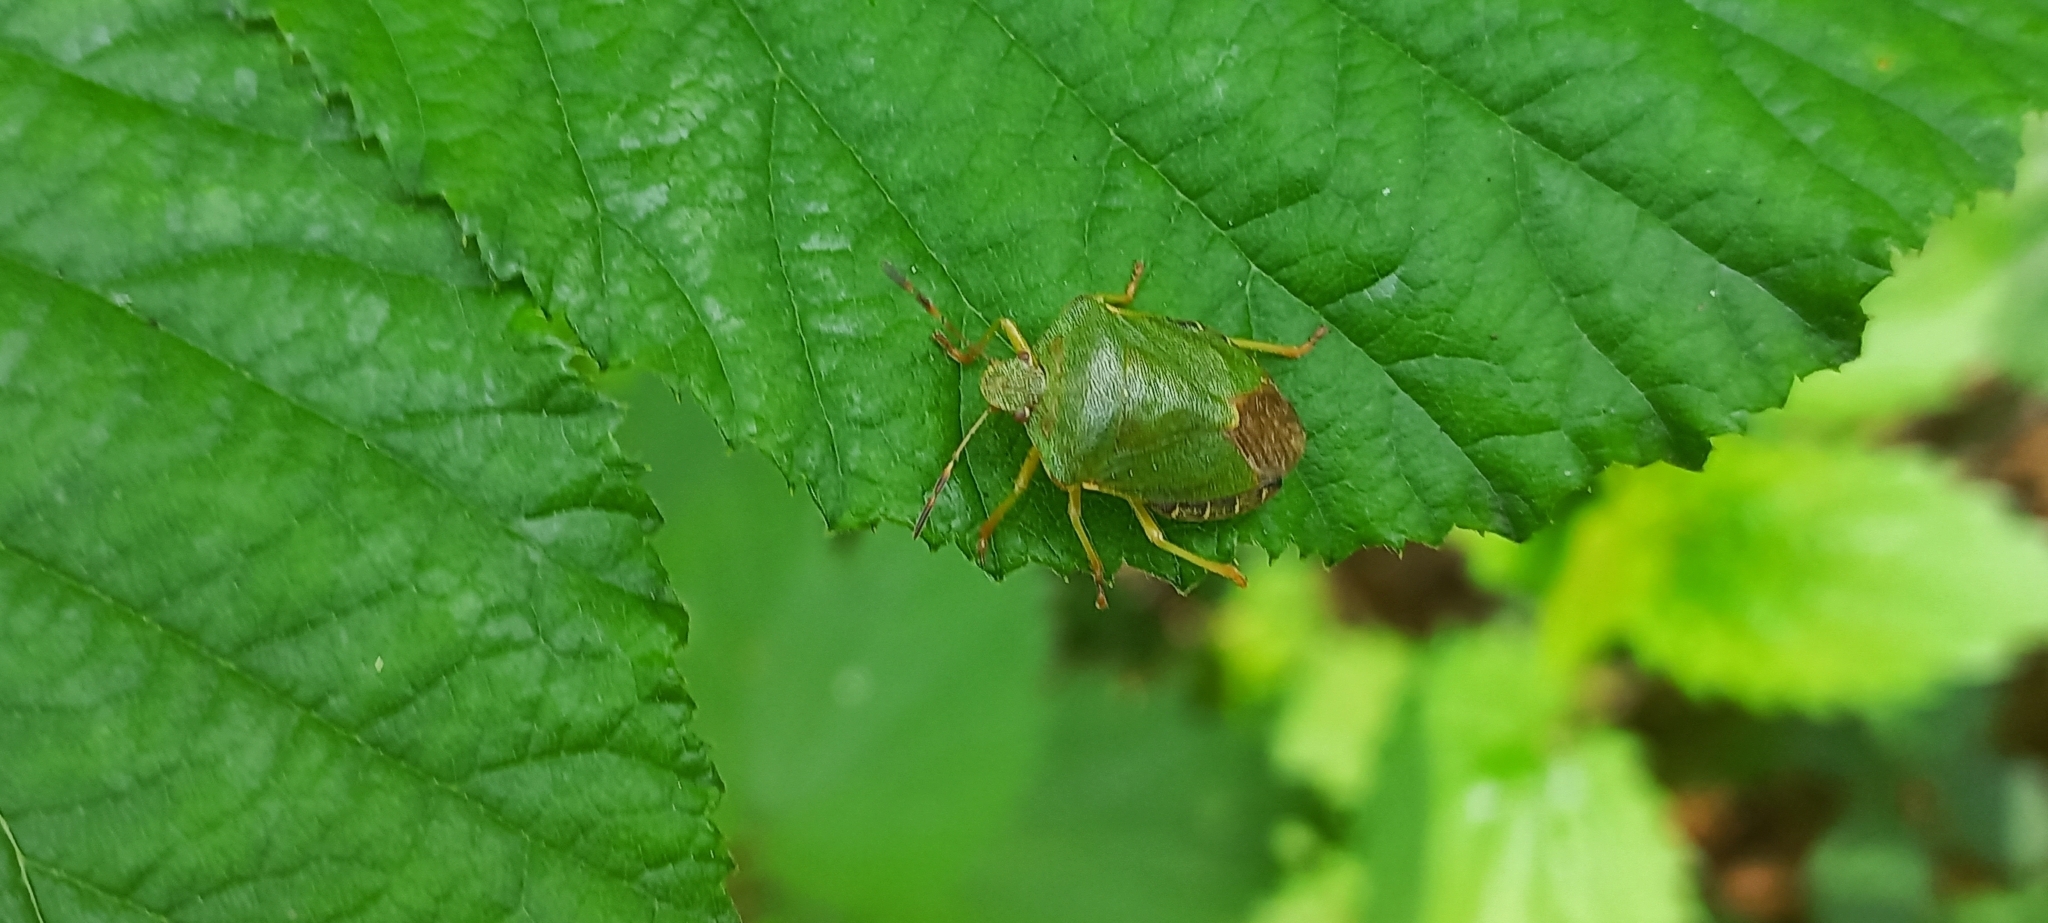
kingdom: Animalia
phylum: Arthropoda
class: Insecta
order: Hemiptera
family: Pentatomidae
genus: Palomena
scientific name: Palomena prasina
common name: Green shieldbug
